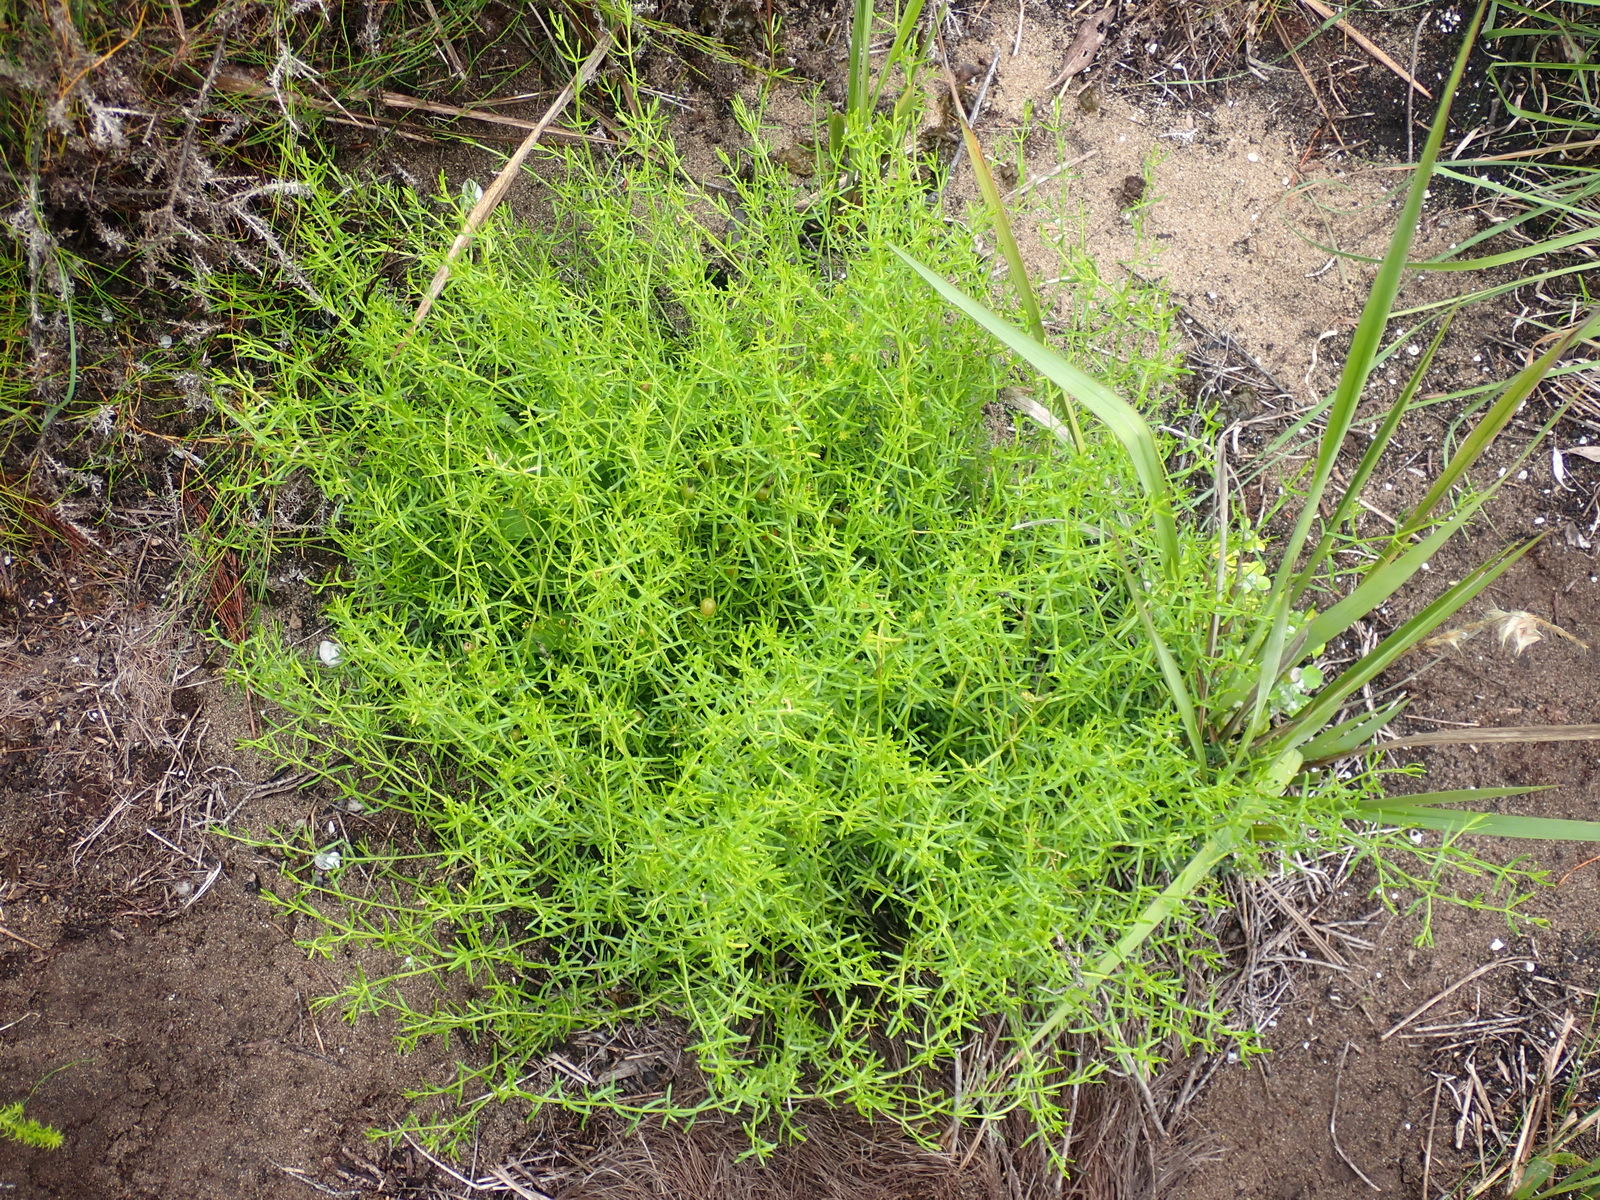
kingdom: Plantae
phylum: Tracheophyta
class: Magnoliopsida
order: Gentianales
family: Gentianaceae
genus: Chironia
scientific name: Chironia baccifera
